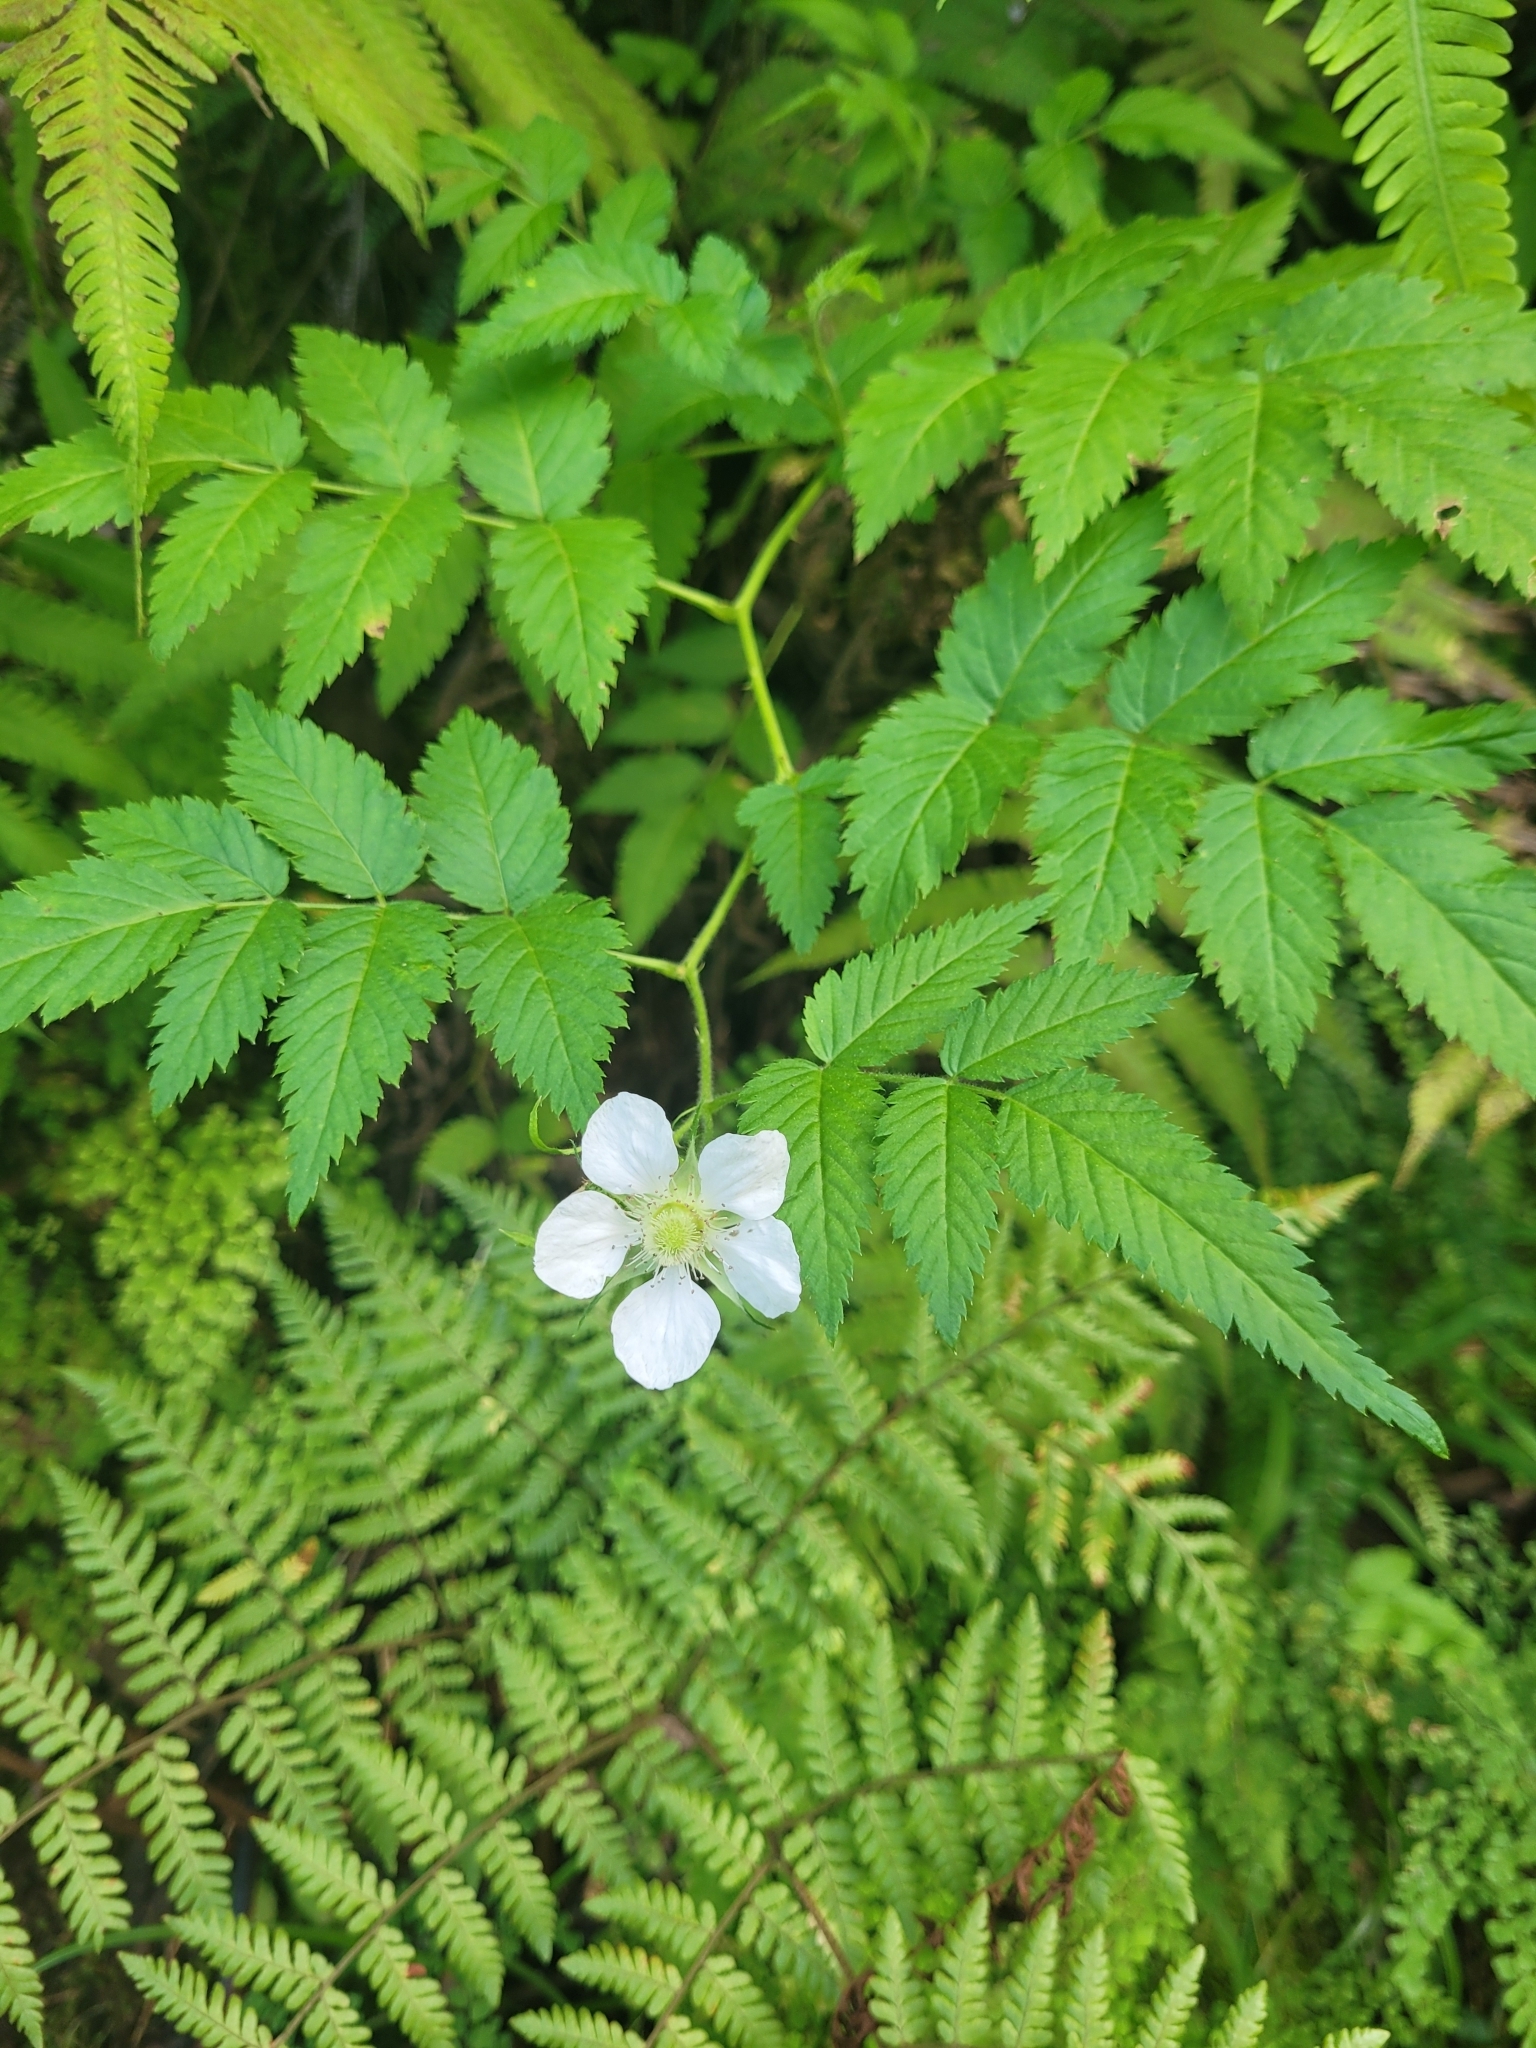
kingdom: Plantae
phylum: Tracheophyta
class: Magnoliopsida
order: Rosales
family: Rosaceae
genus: Rubus
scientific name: Rubus rosifolius
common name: Roseleaf raspberry
